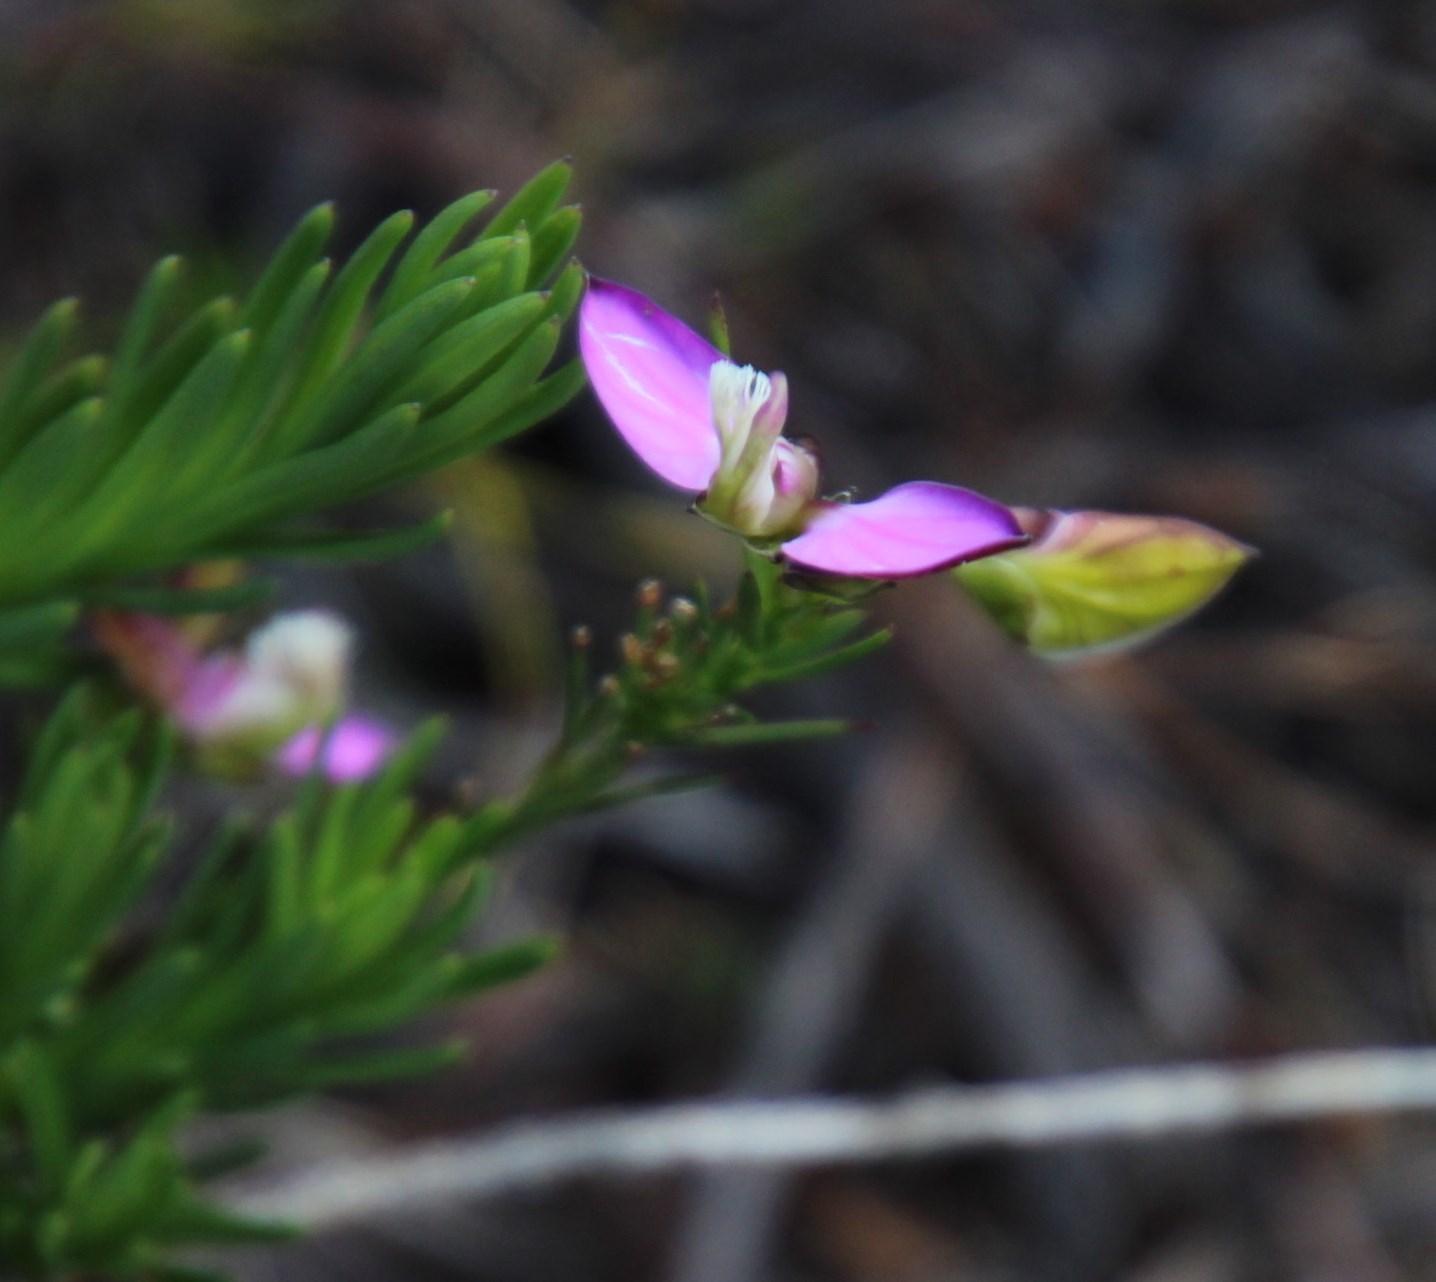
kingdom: Plantae
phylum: Tracheophyta
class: Magnoliopsida
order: Fabales
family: Polygalaceae
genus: Polygala
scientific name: Polygala garcini
